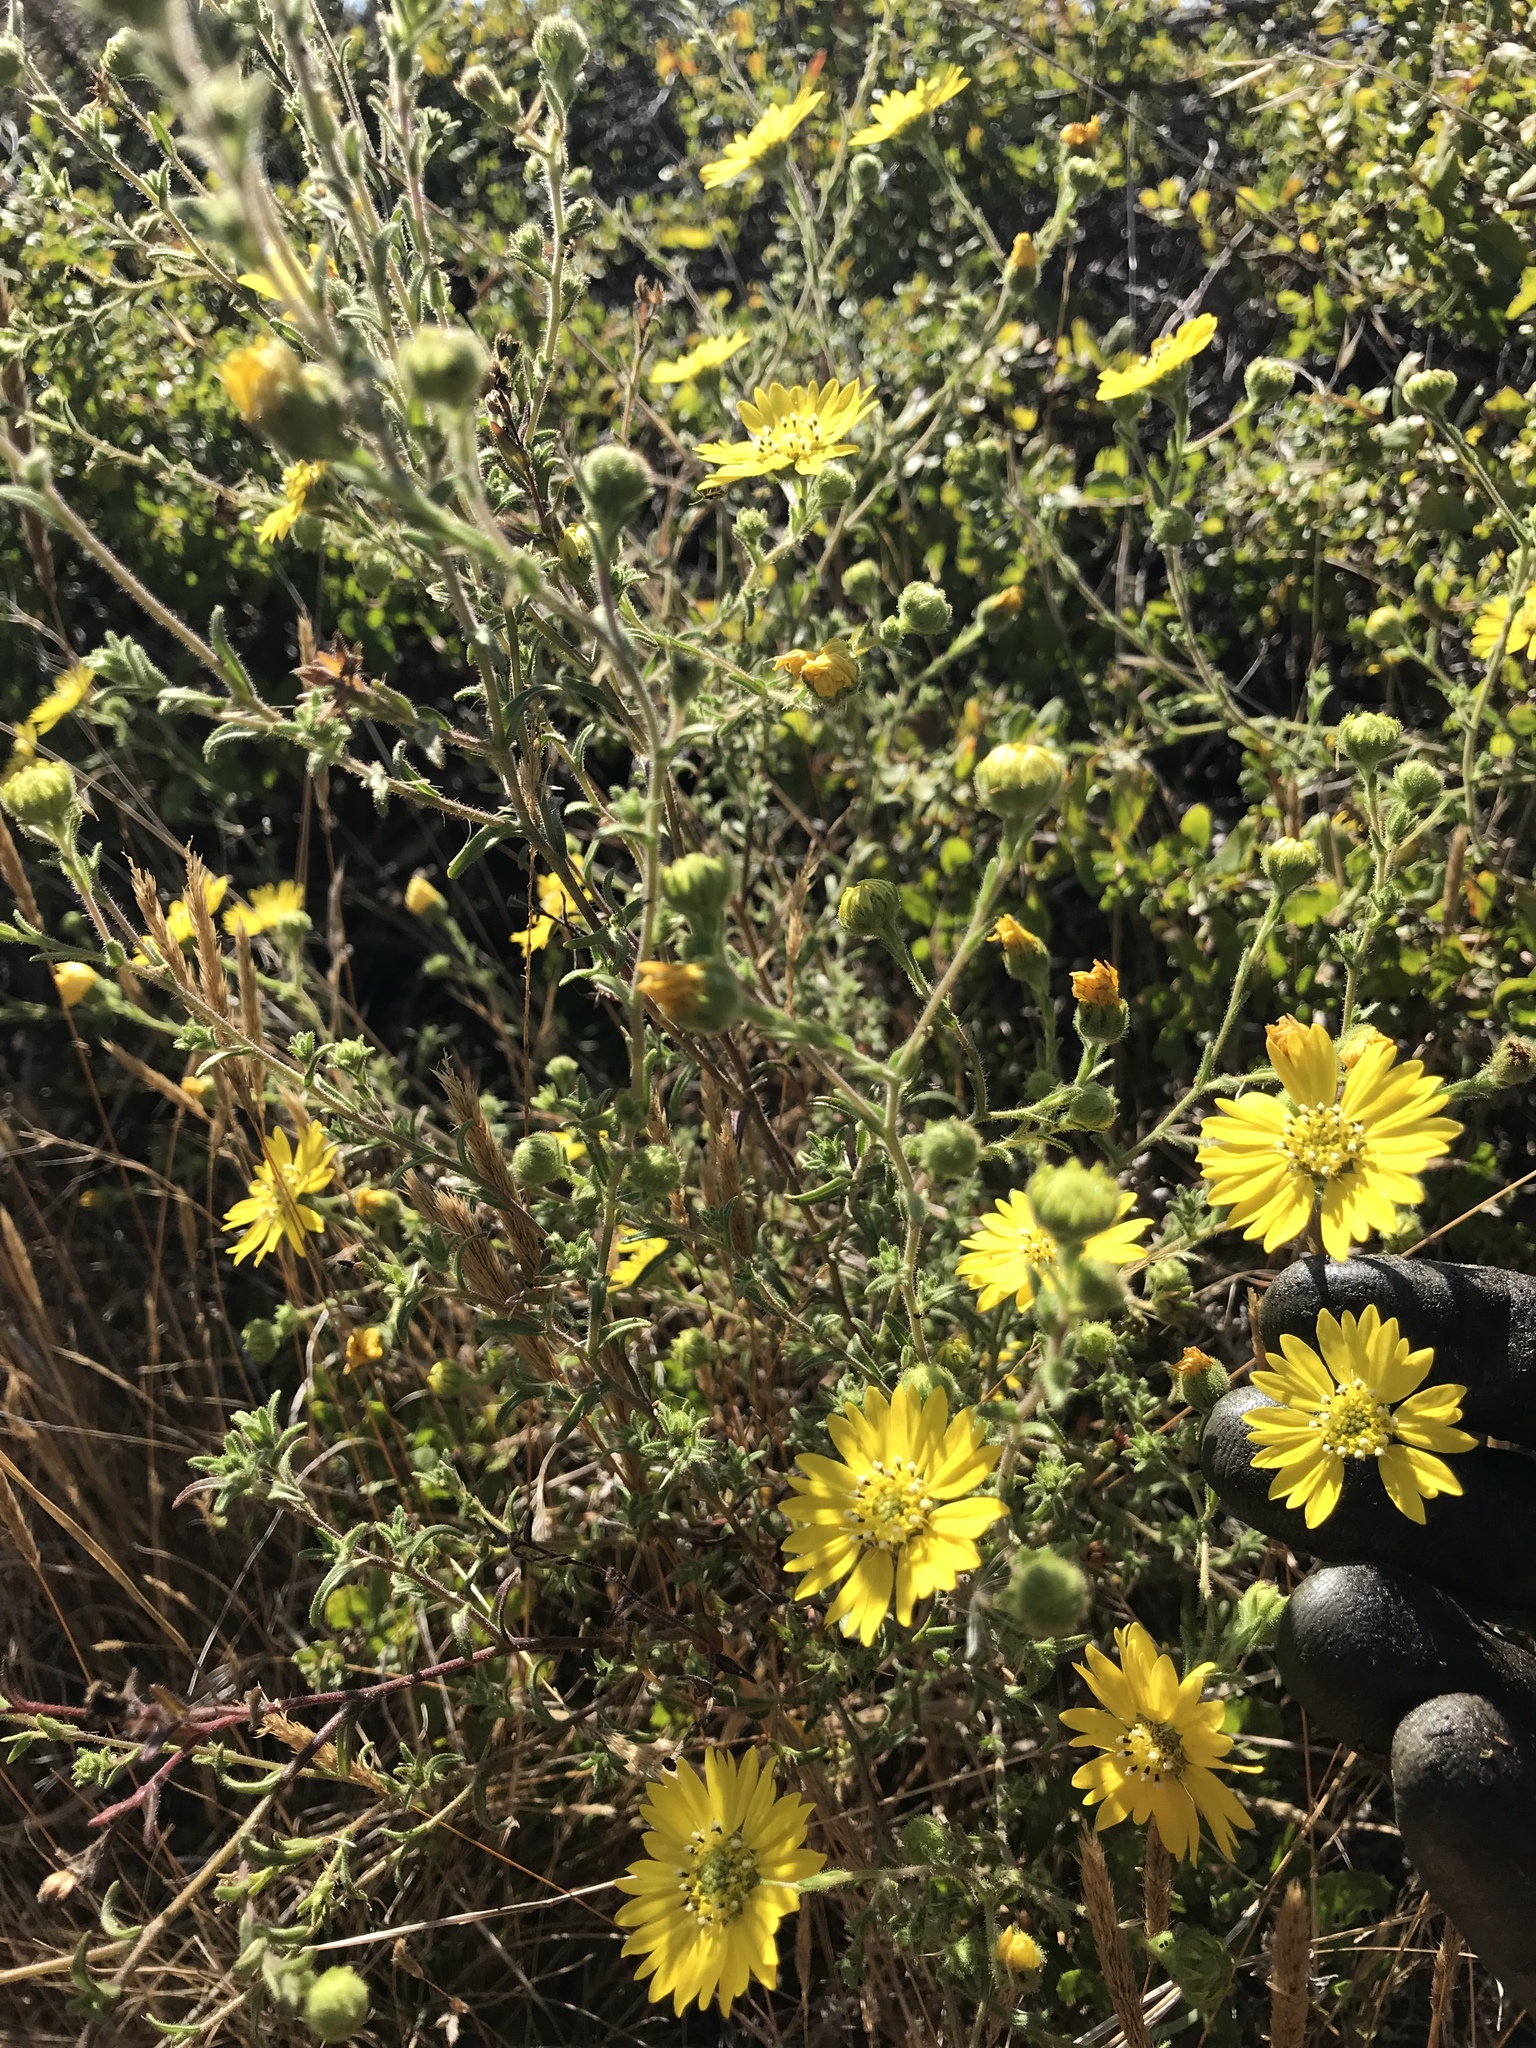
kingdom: Plantae
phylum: Tracheophyta
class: Magnoliopsida
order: Asterales
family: Asteraceae
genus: Hemizonia
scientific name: Hemizonia congesta
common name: Hayfield tarweed
